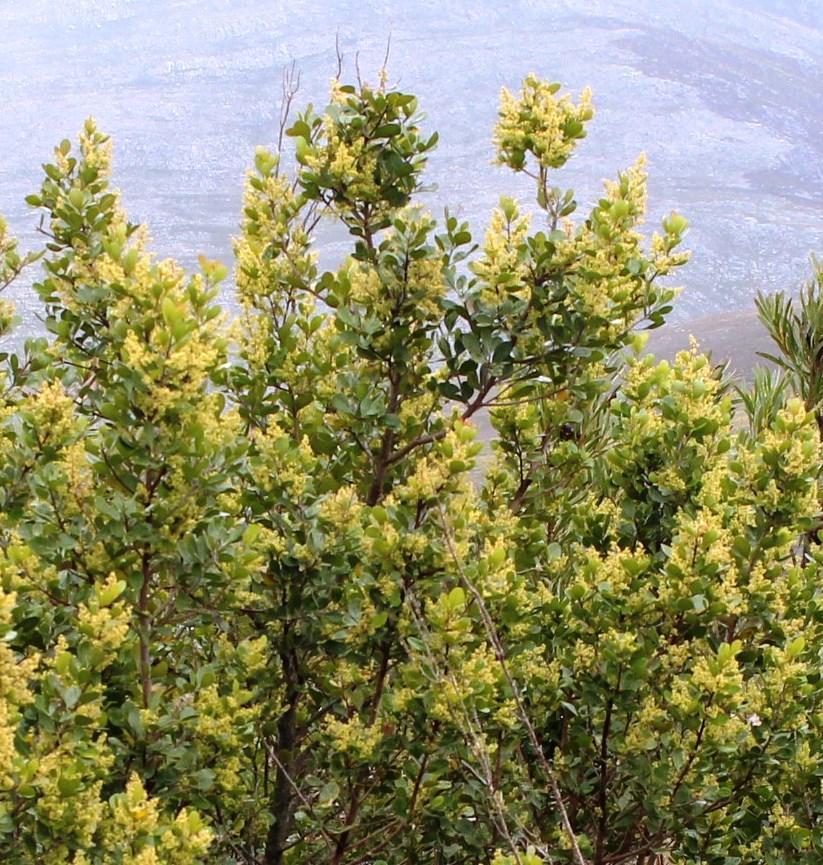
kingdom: Plantae
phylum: Tracheophyta
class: Magnoliopsida
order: Sapindales
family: Anacardiaceae
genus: Searsia
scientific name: Searsia lucida
